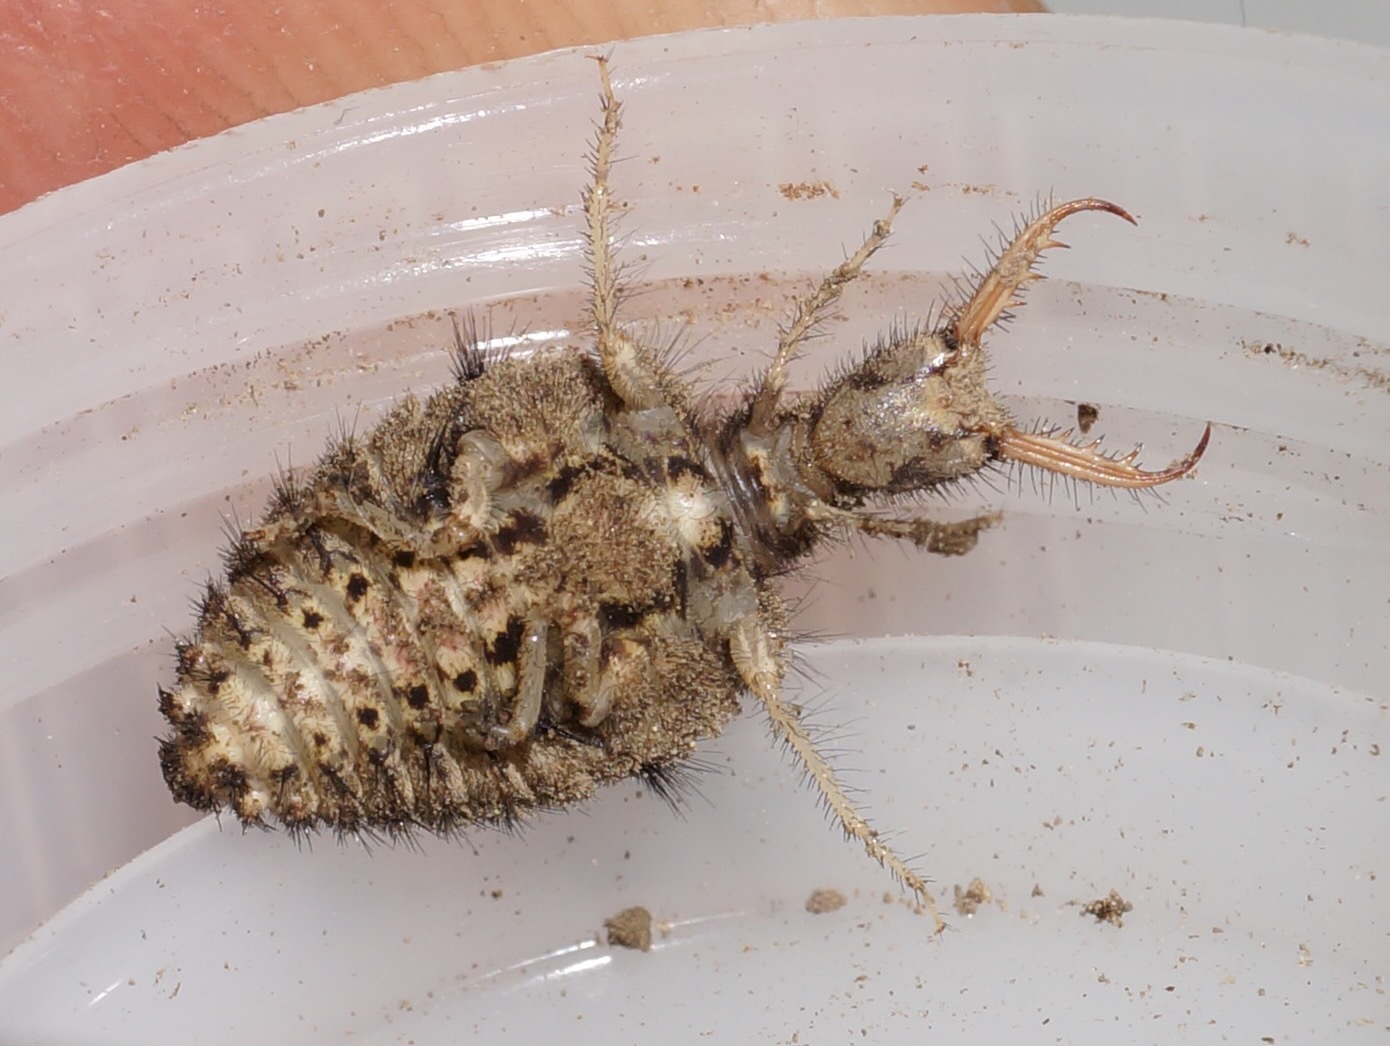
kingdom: Animalia
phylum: Arthropoda
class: Insecta
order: Neuroptera
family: Myrmeleontidae
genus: Weeleus
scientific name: Weeleus acutus
